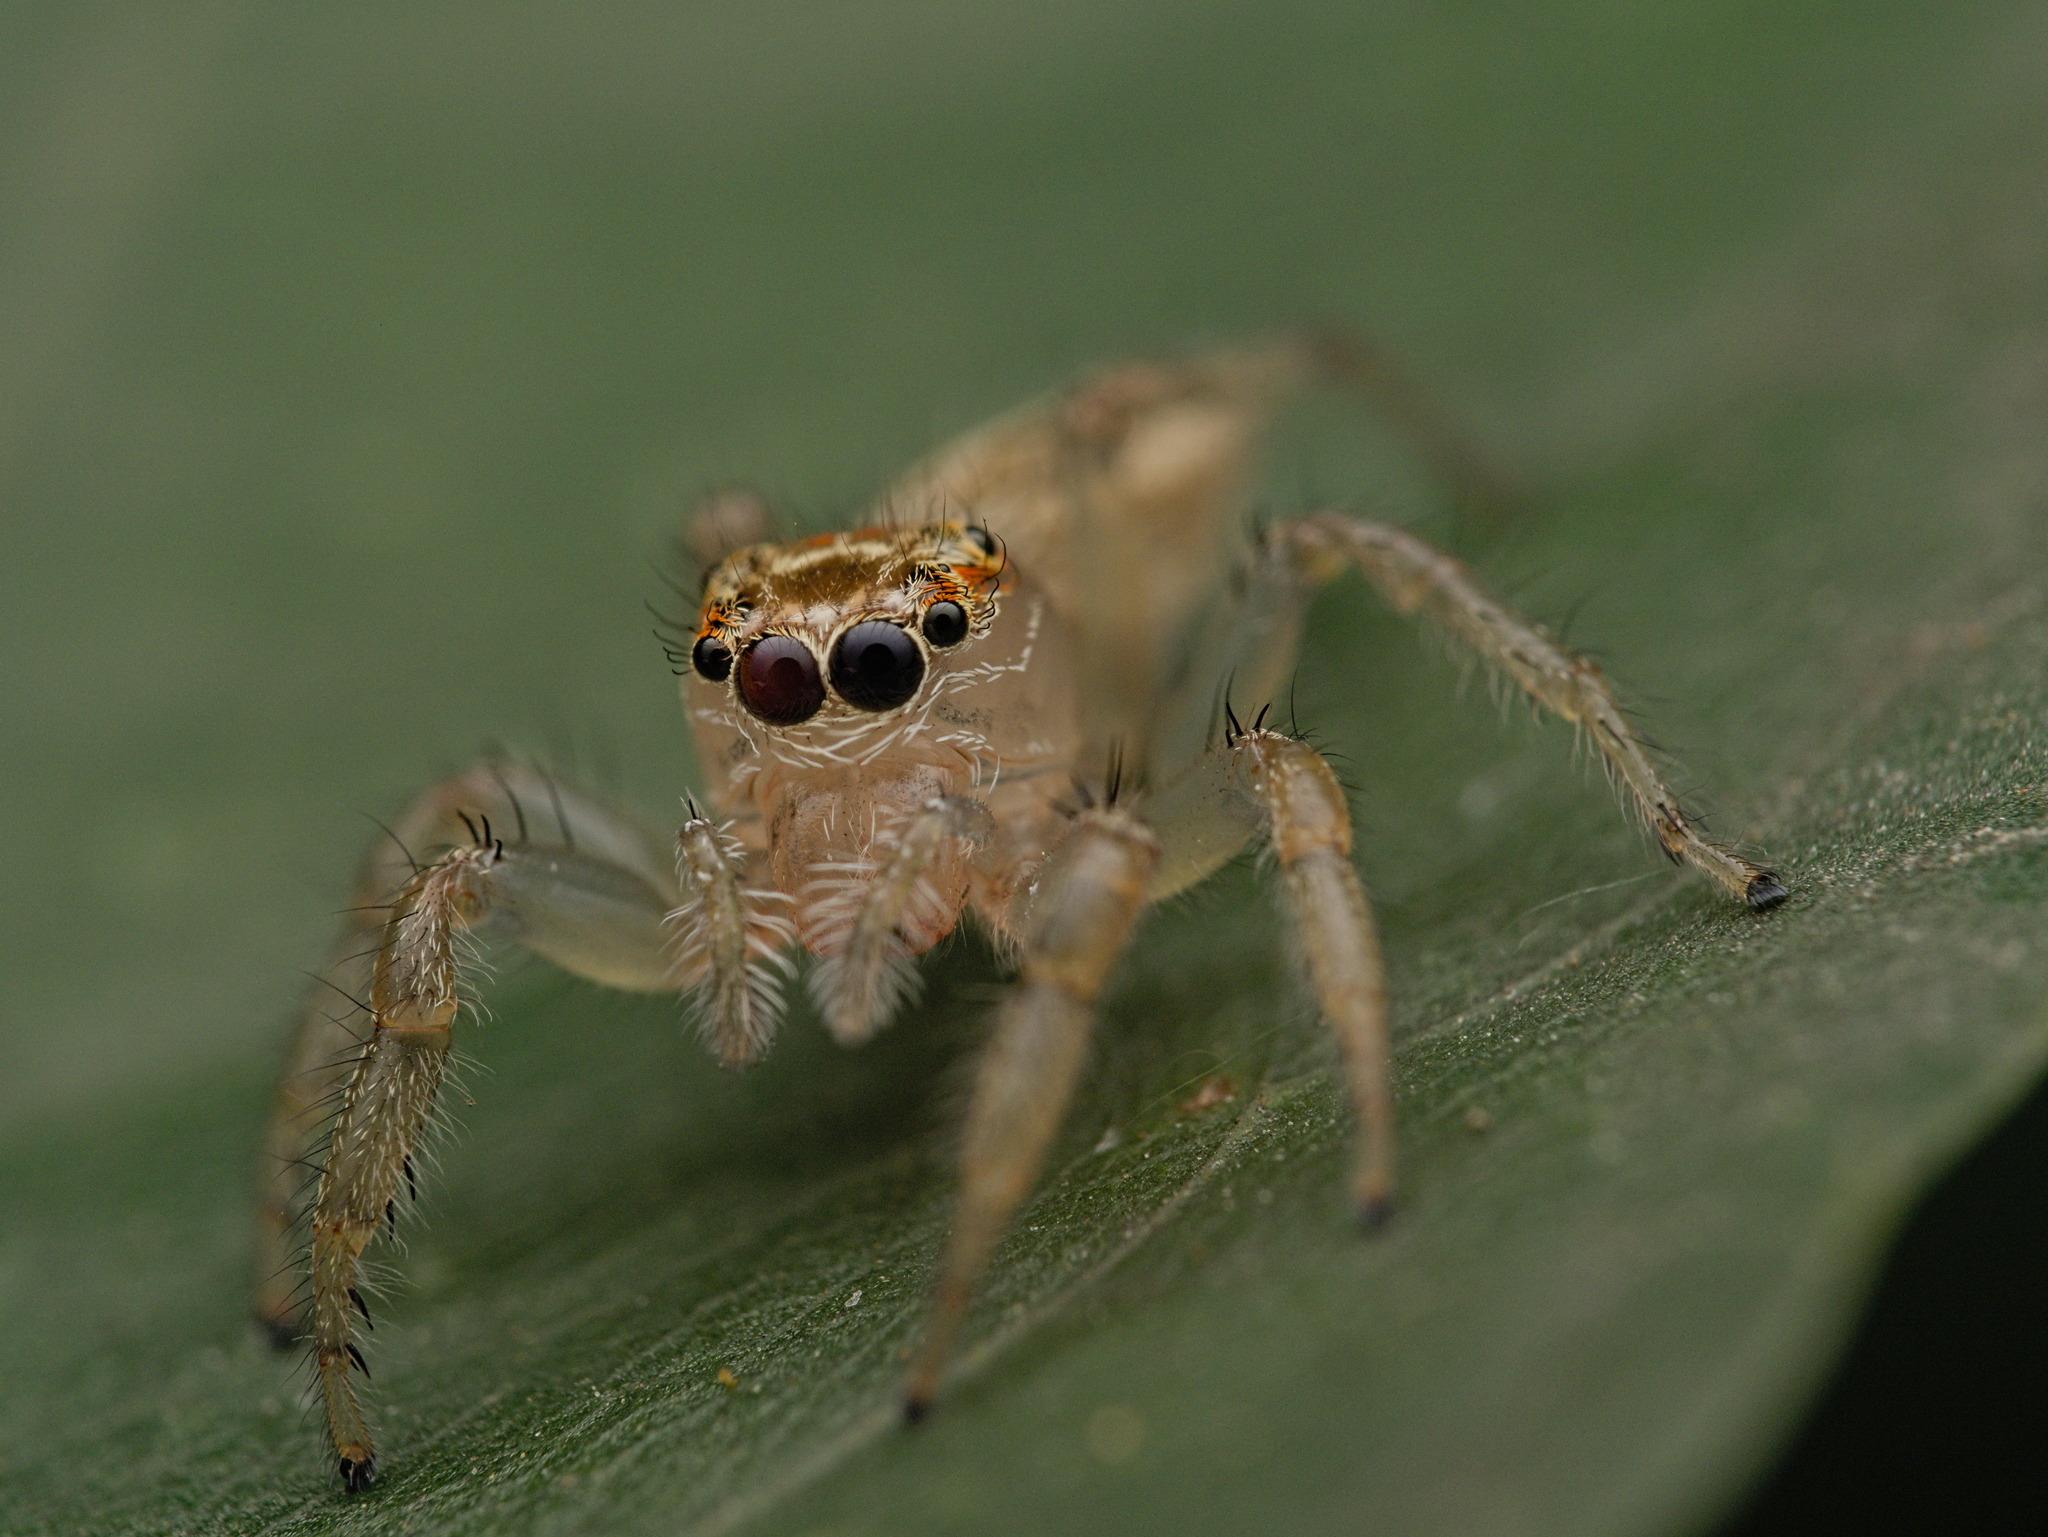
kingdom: Animalia
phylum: Arthropoda
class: Arachnida
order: Araneae
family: Salticidae
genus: Colonus
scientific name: Colonus sylvanus
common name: Jumping spiders
